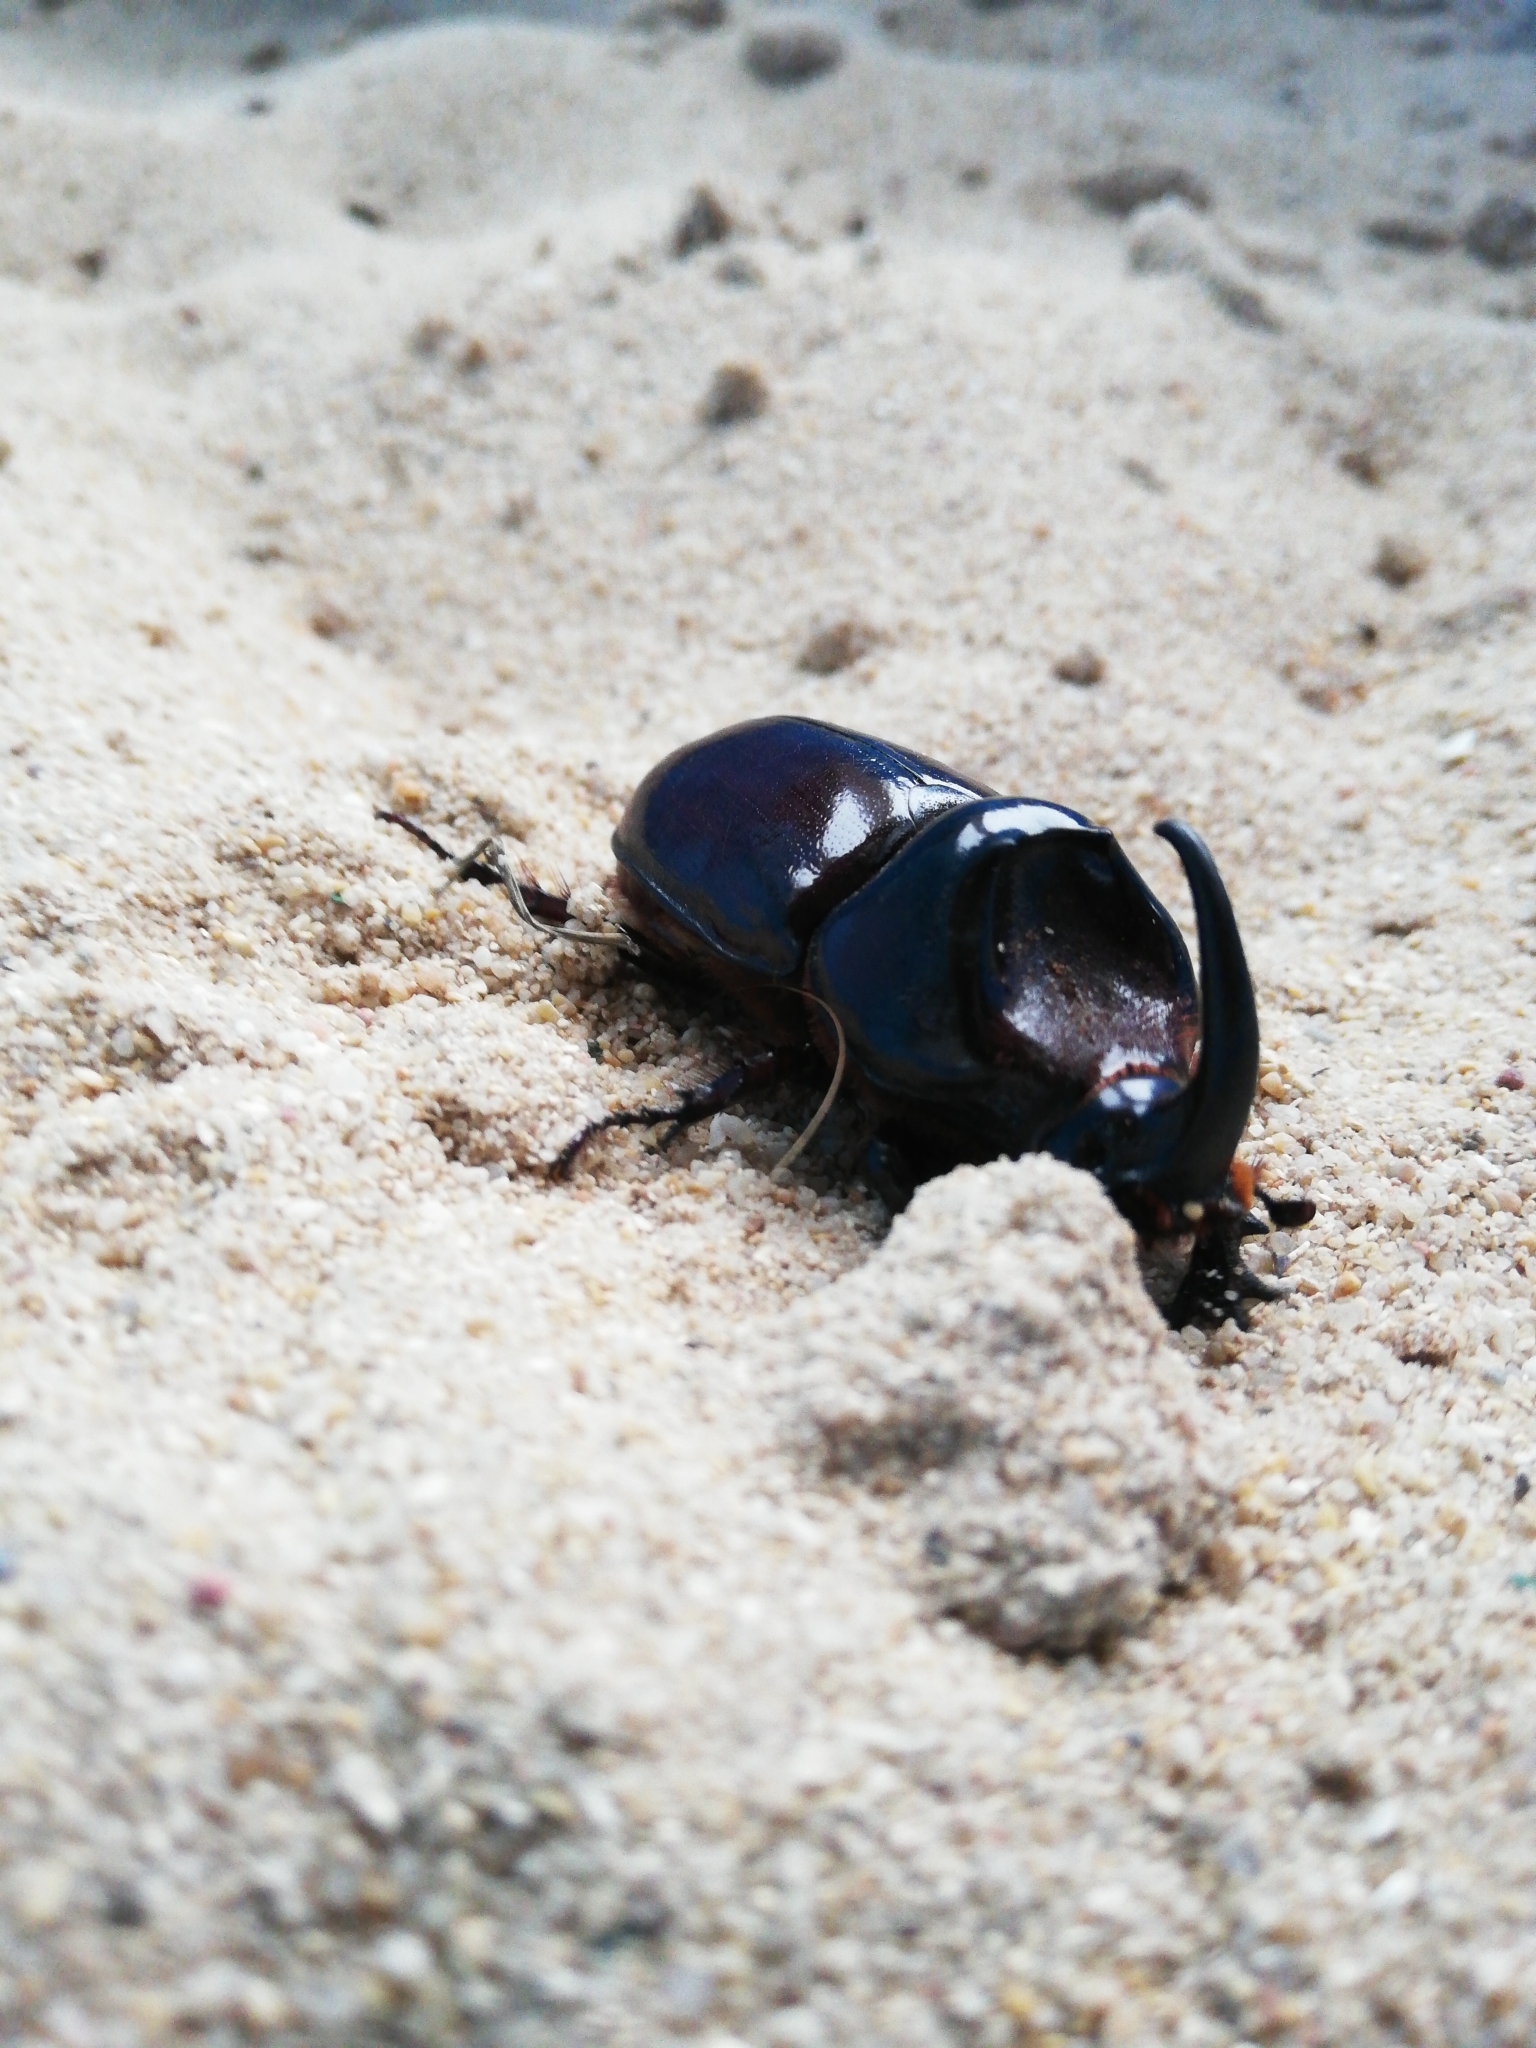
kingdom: Animalia
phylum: Arthropoda
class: Insecta
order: Coleoptera
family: Scarabaeidae
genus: Oryctes
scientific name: Oryctes boas
